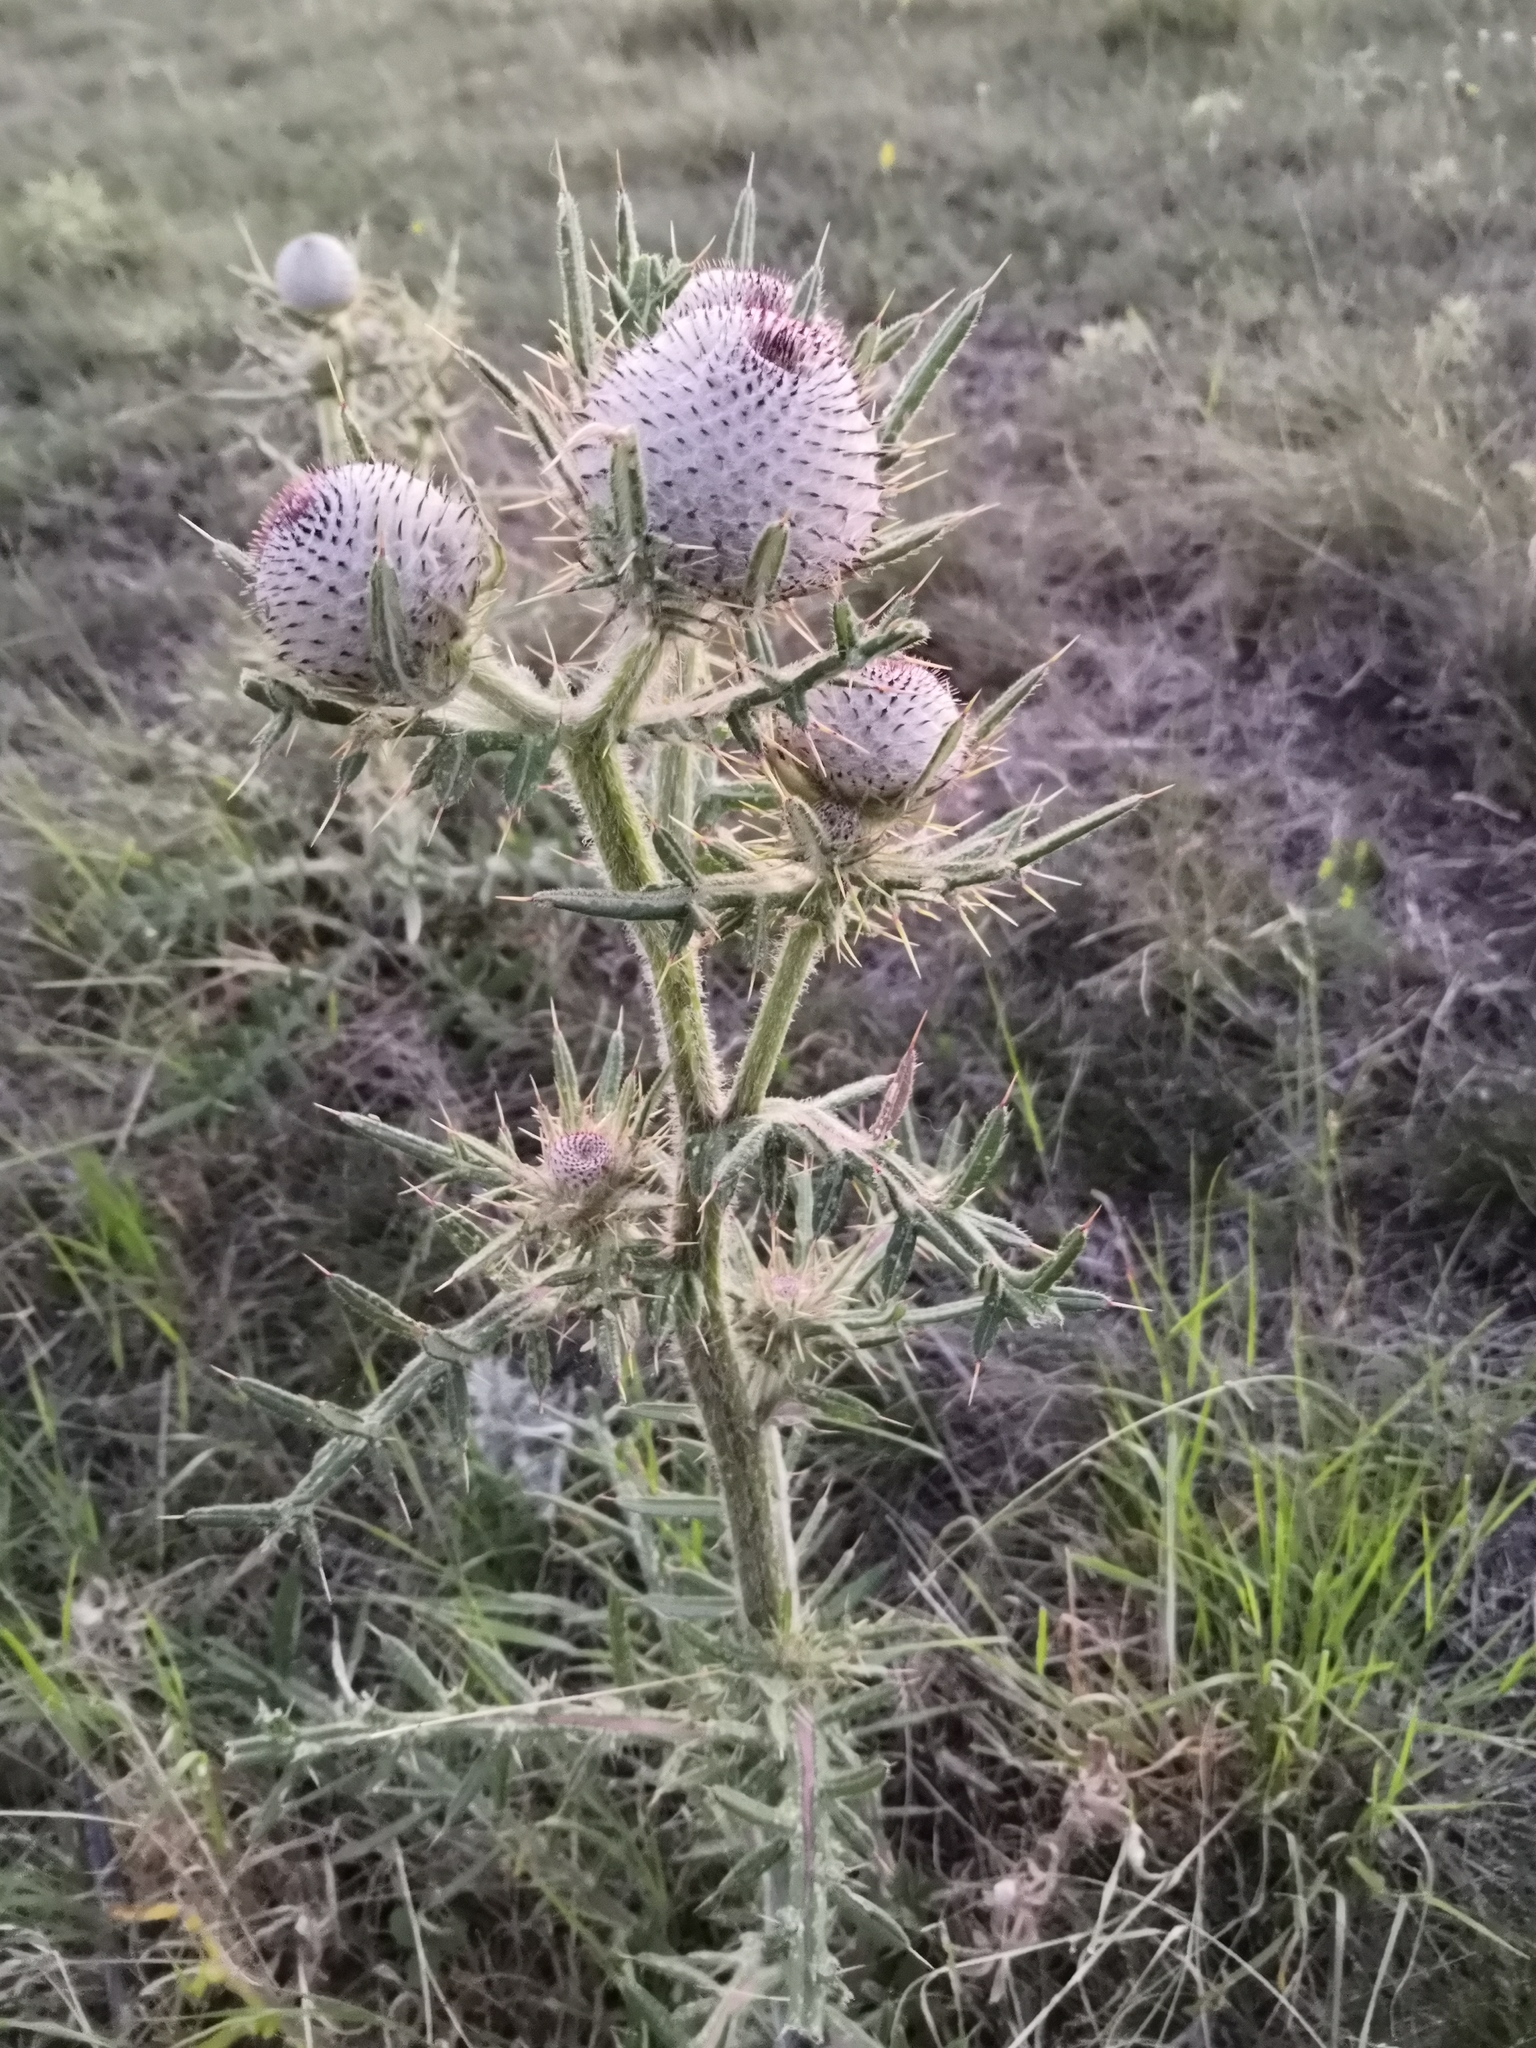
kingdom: Plantae
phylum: Tracheophyta
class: Magnoliopsida
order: Asterales
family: Asteraceae
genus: Lophiolepis
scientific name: Lophiolepis eriophora
